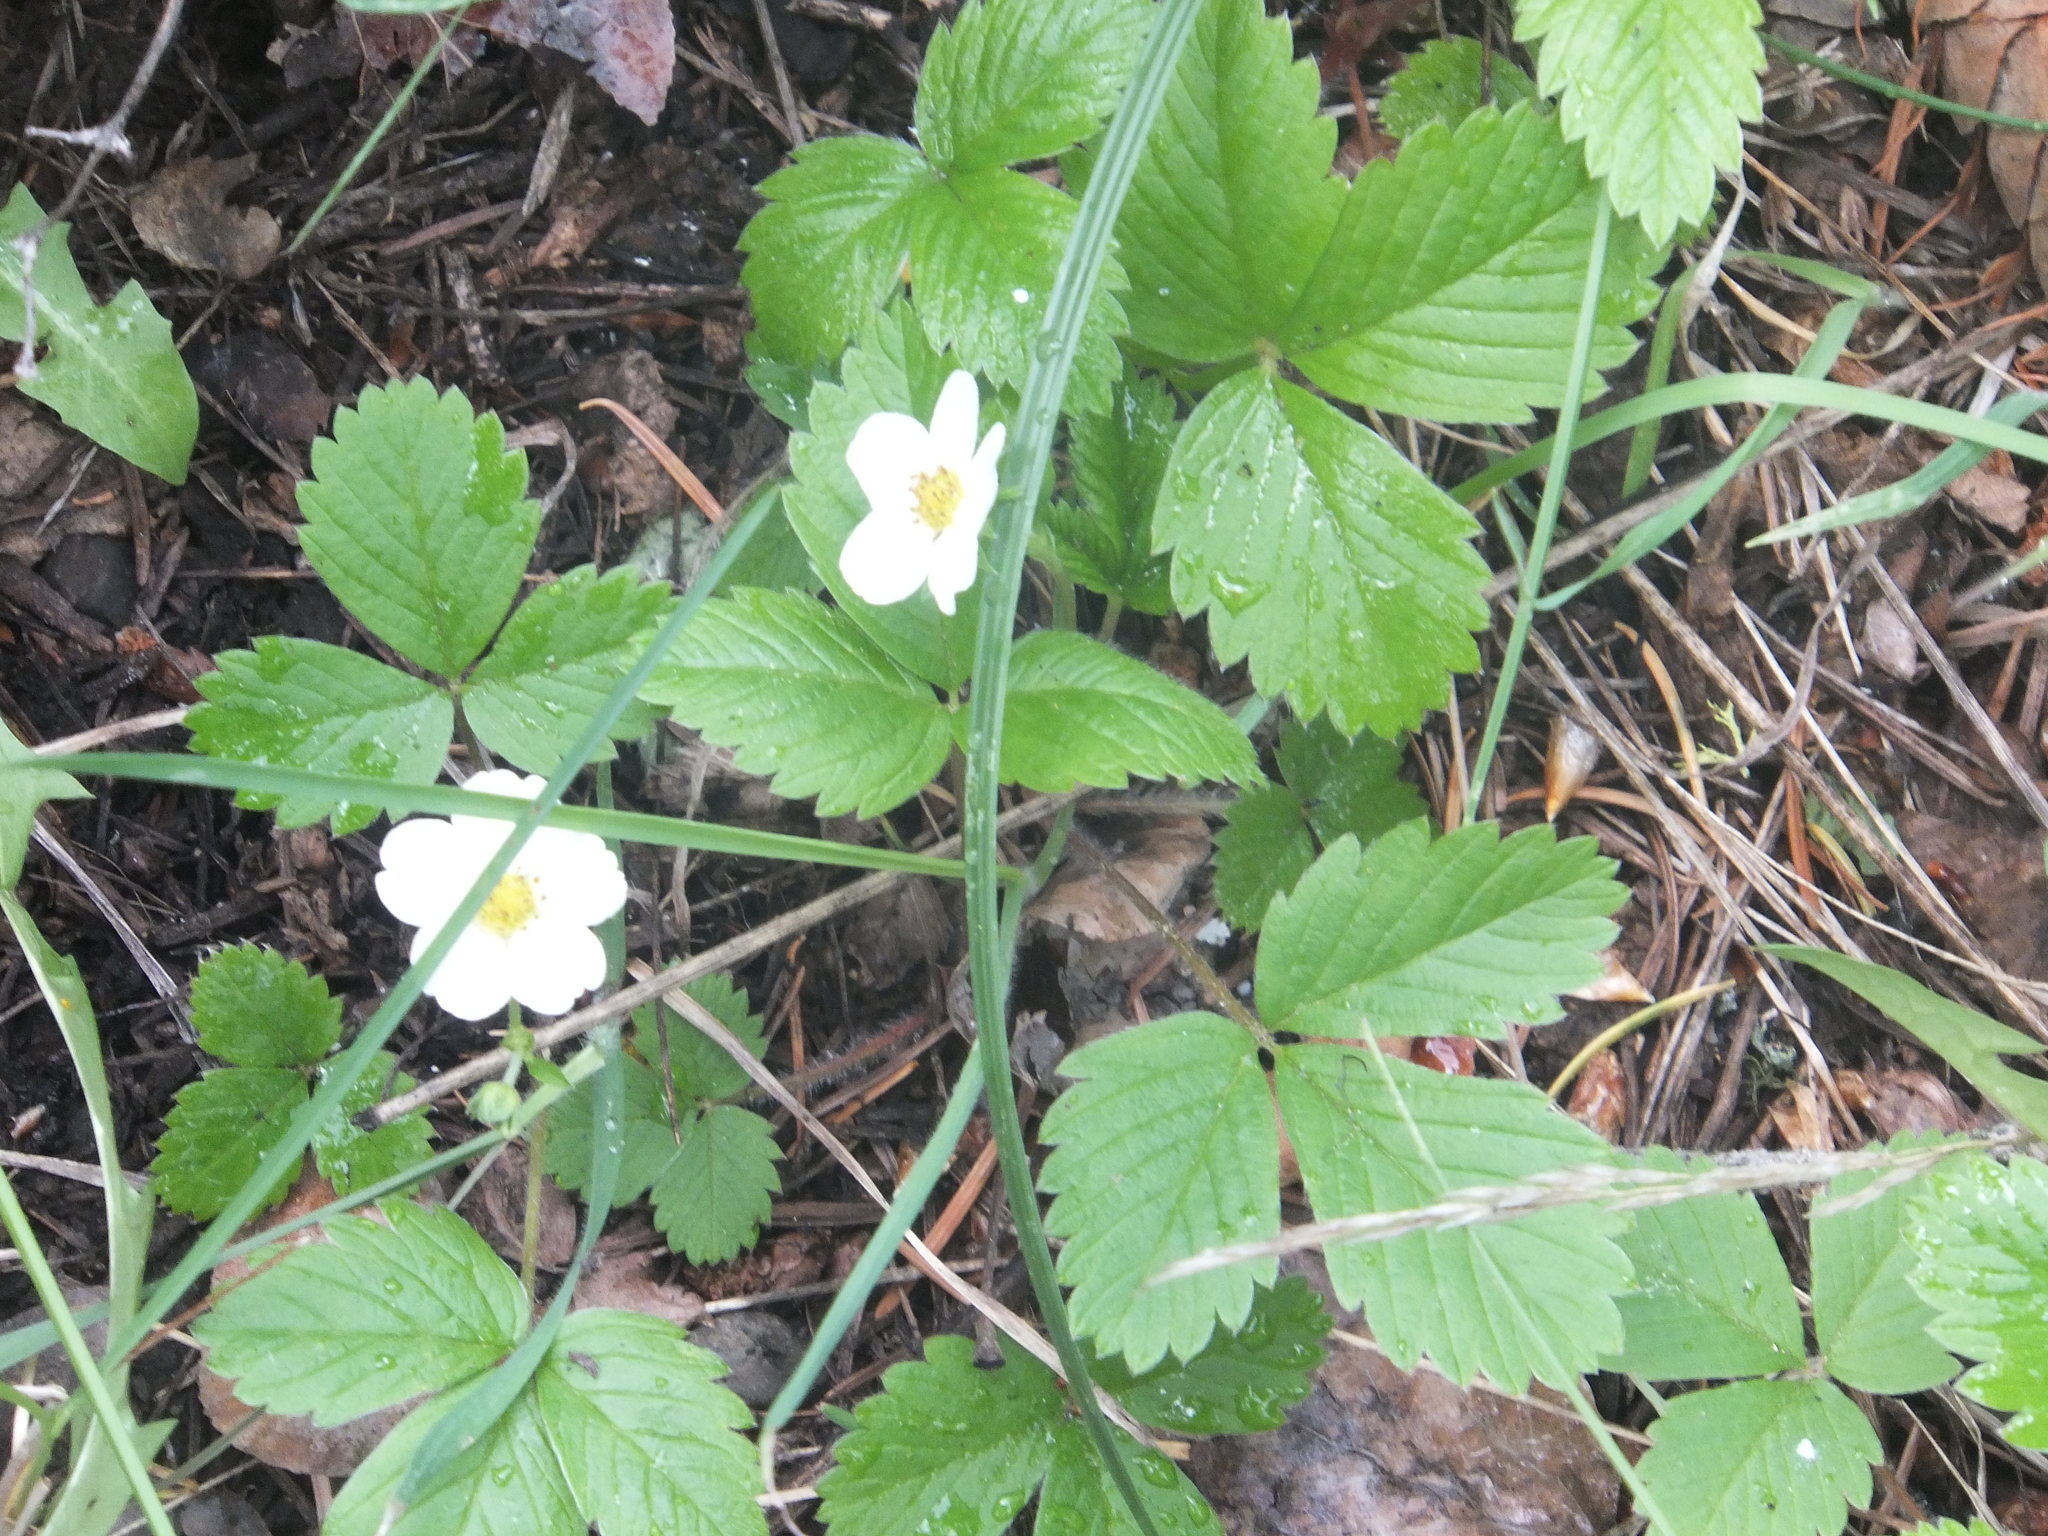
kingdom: Plantae
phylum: Tracheophyta
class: Magnoliopsida
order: Rosales
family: Rosaceae
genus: Fragaria
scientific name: Fragaria vesca
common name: Wild strawberry
